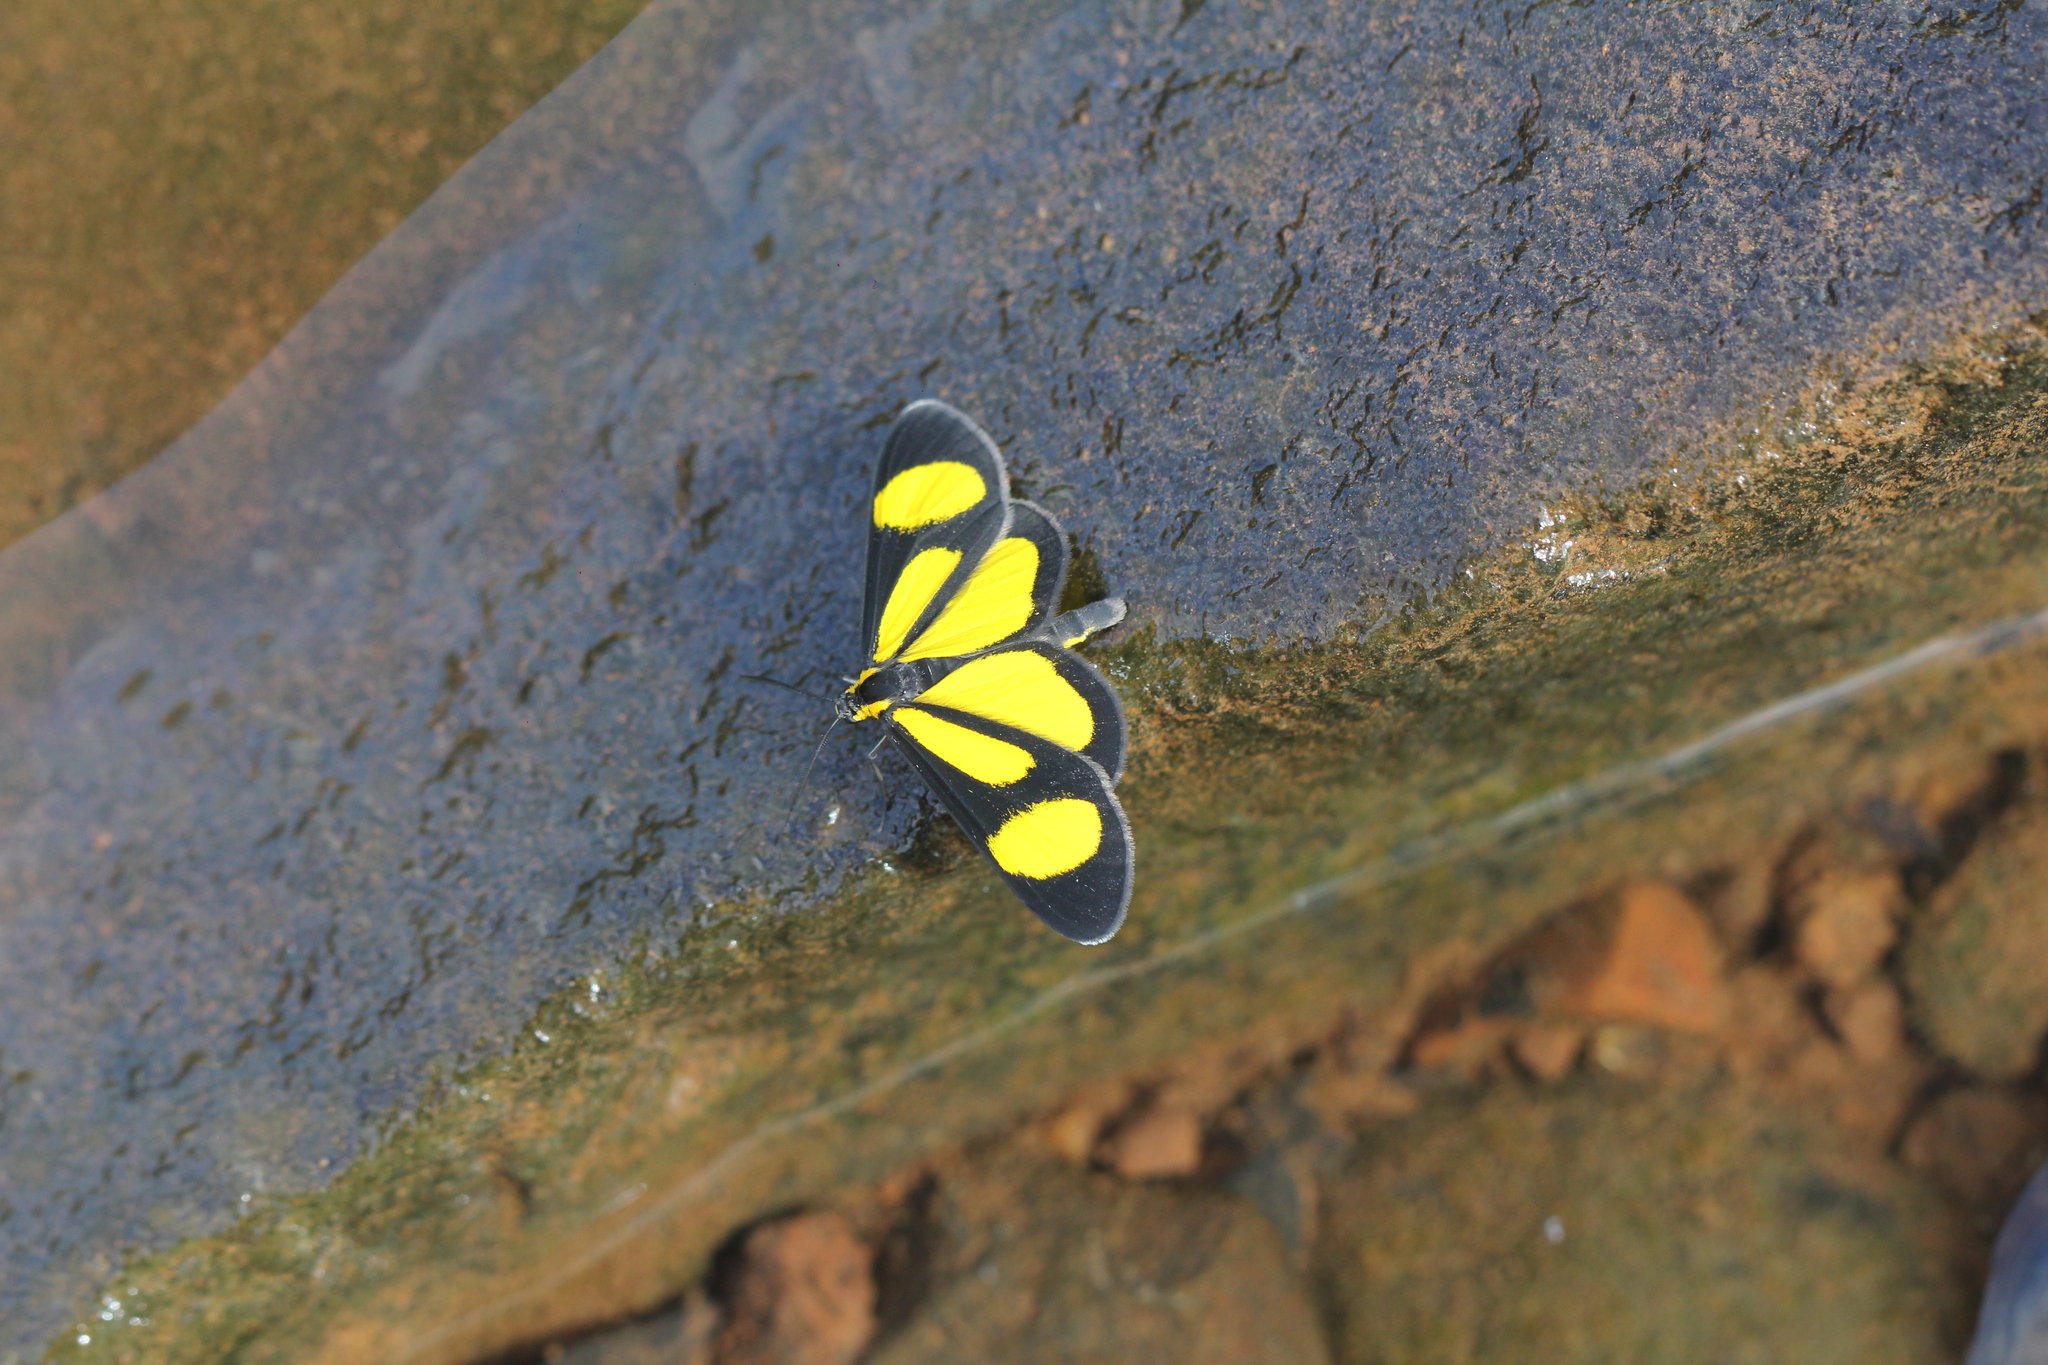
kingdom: Animalia
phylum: Arthropoda
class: Insecta
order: Lepidoptera
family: Geometridae
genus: Cyllopoda
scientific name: Cyllopoda bipuncta
